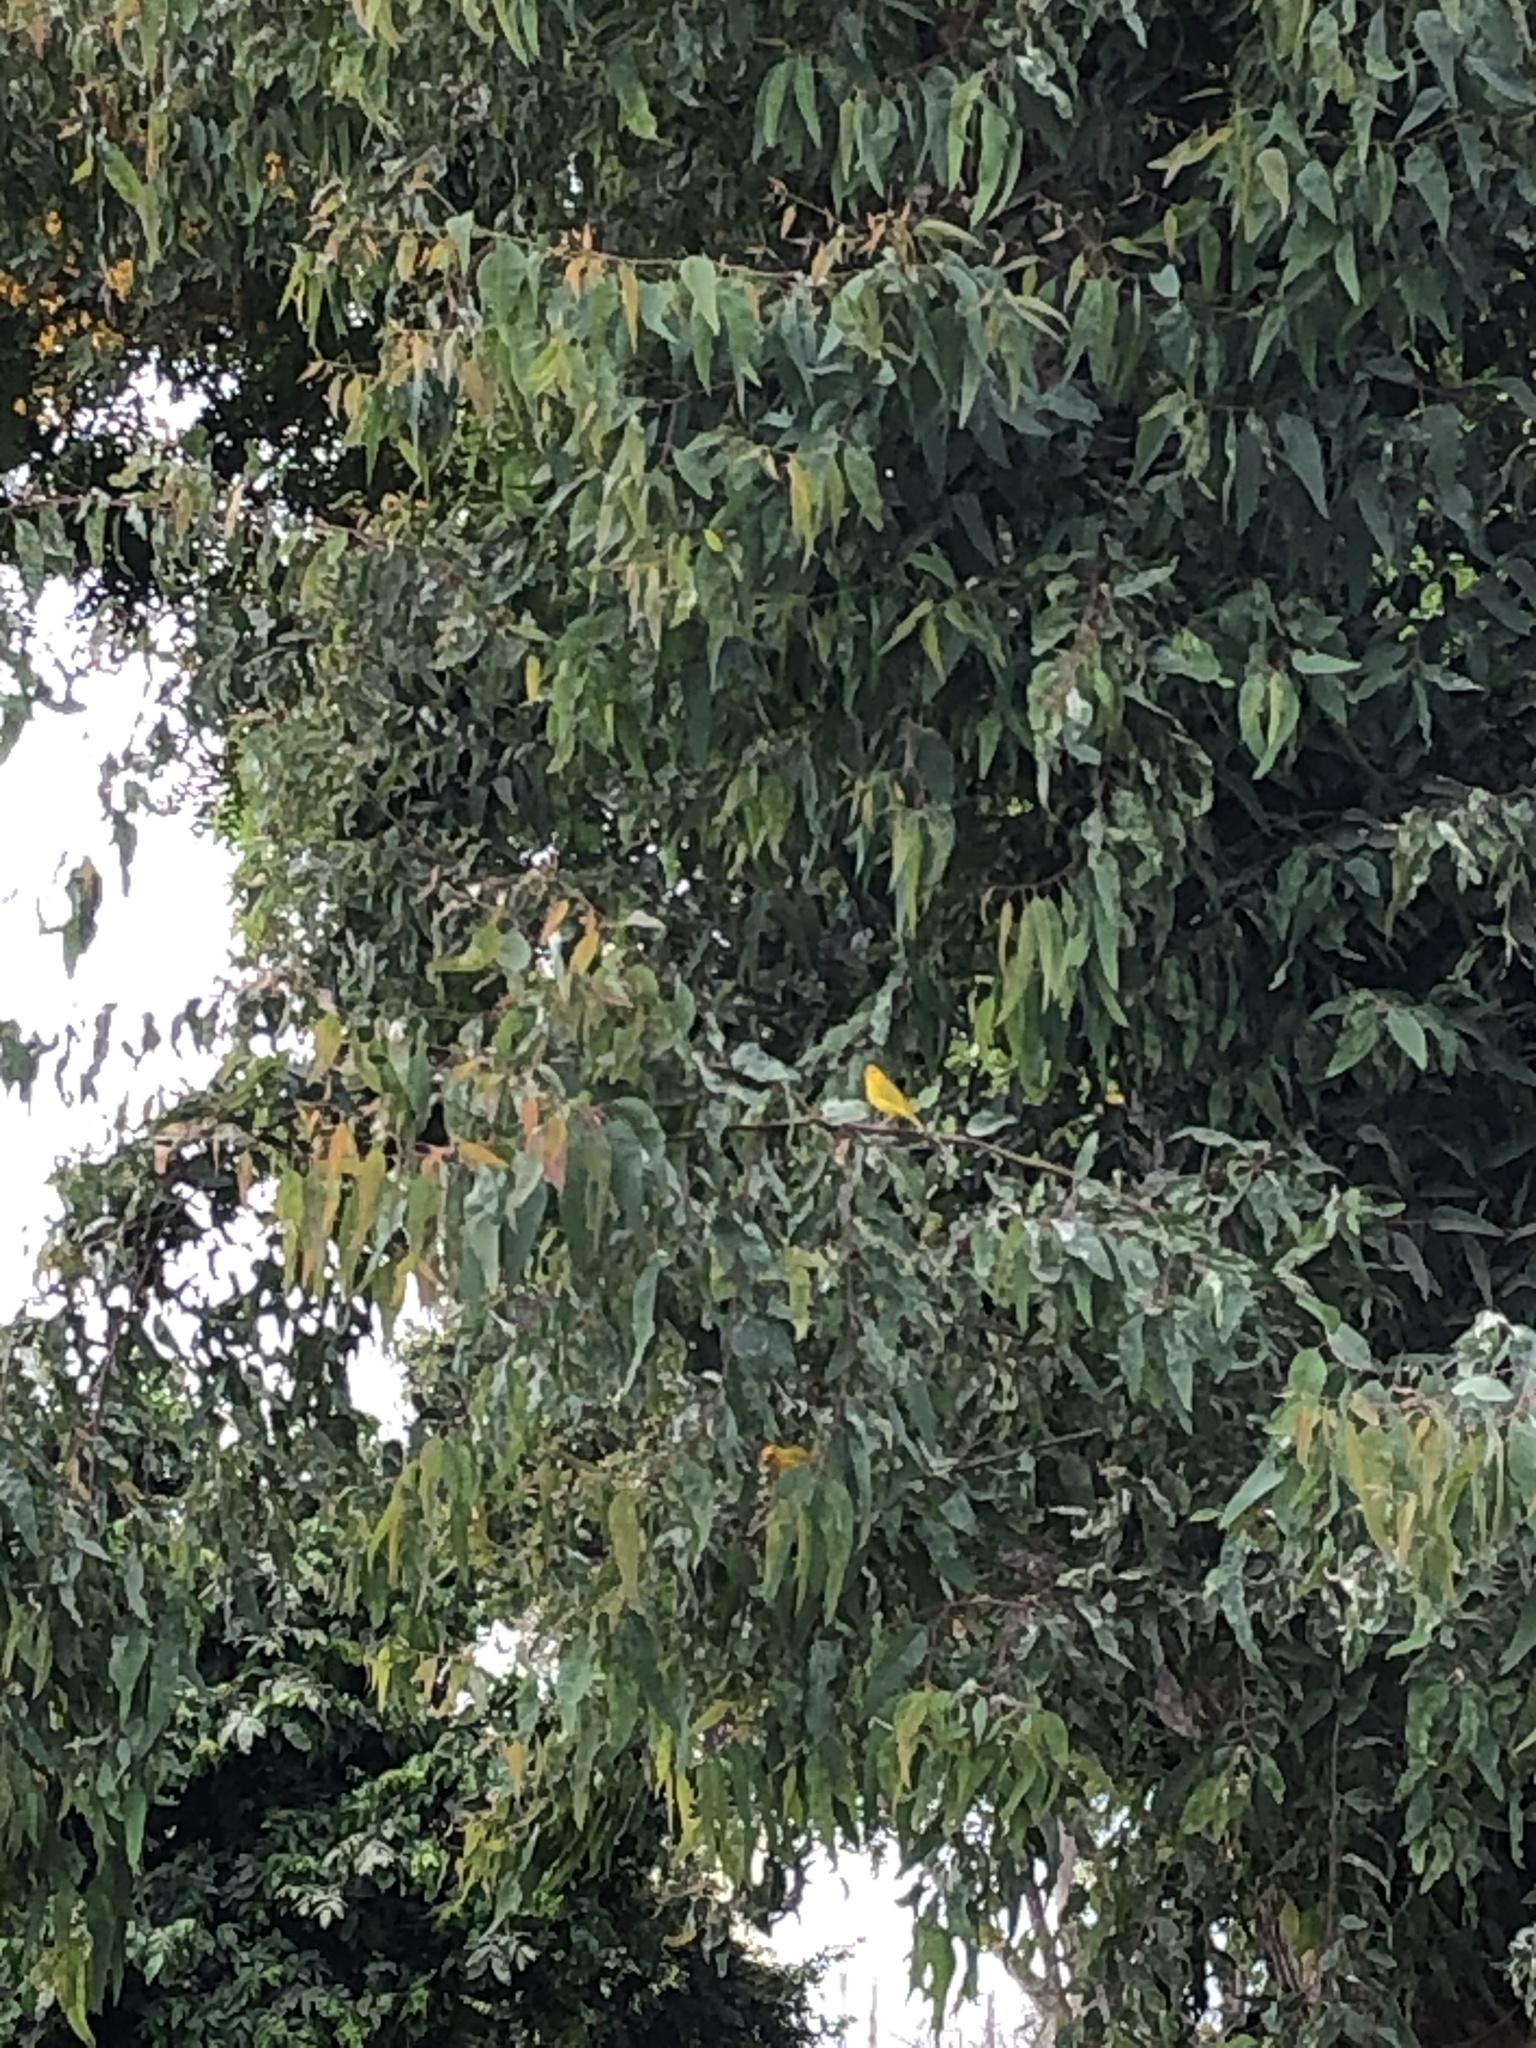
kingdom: Animalia
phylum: Chordata
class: Aves
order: Passeriformes
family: Thraupidae
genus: Sicalis
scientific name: Sicalis flaveola
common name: Saffron finch
